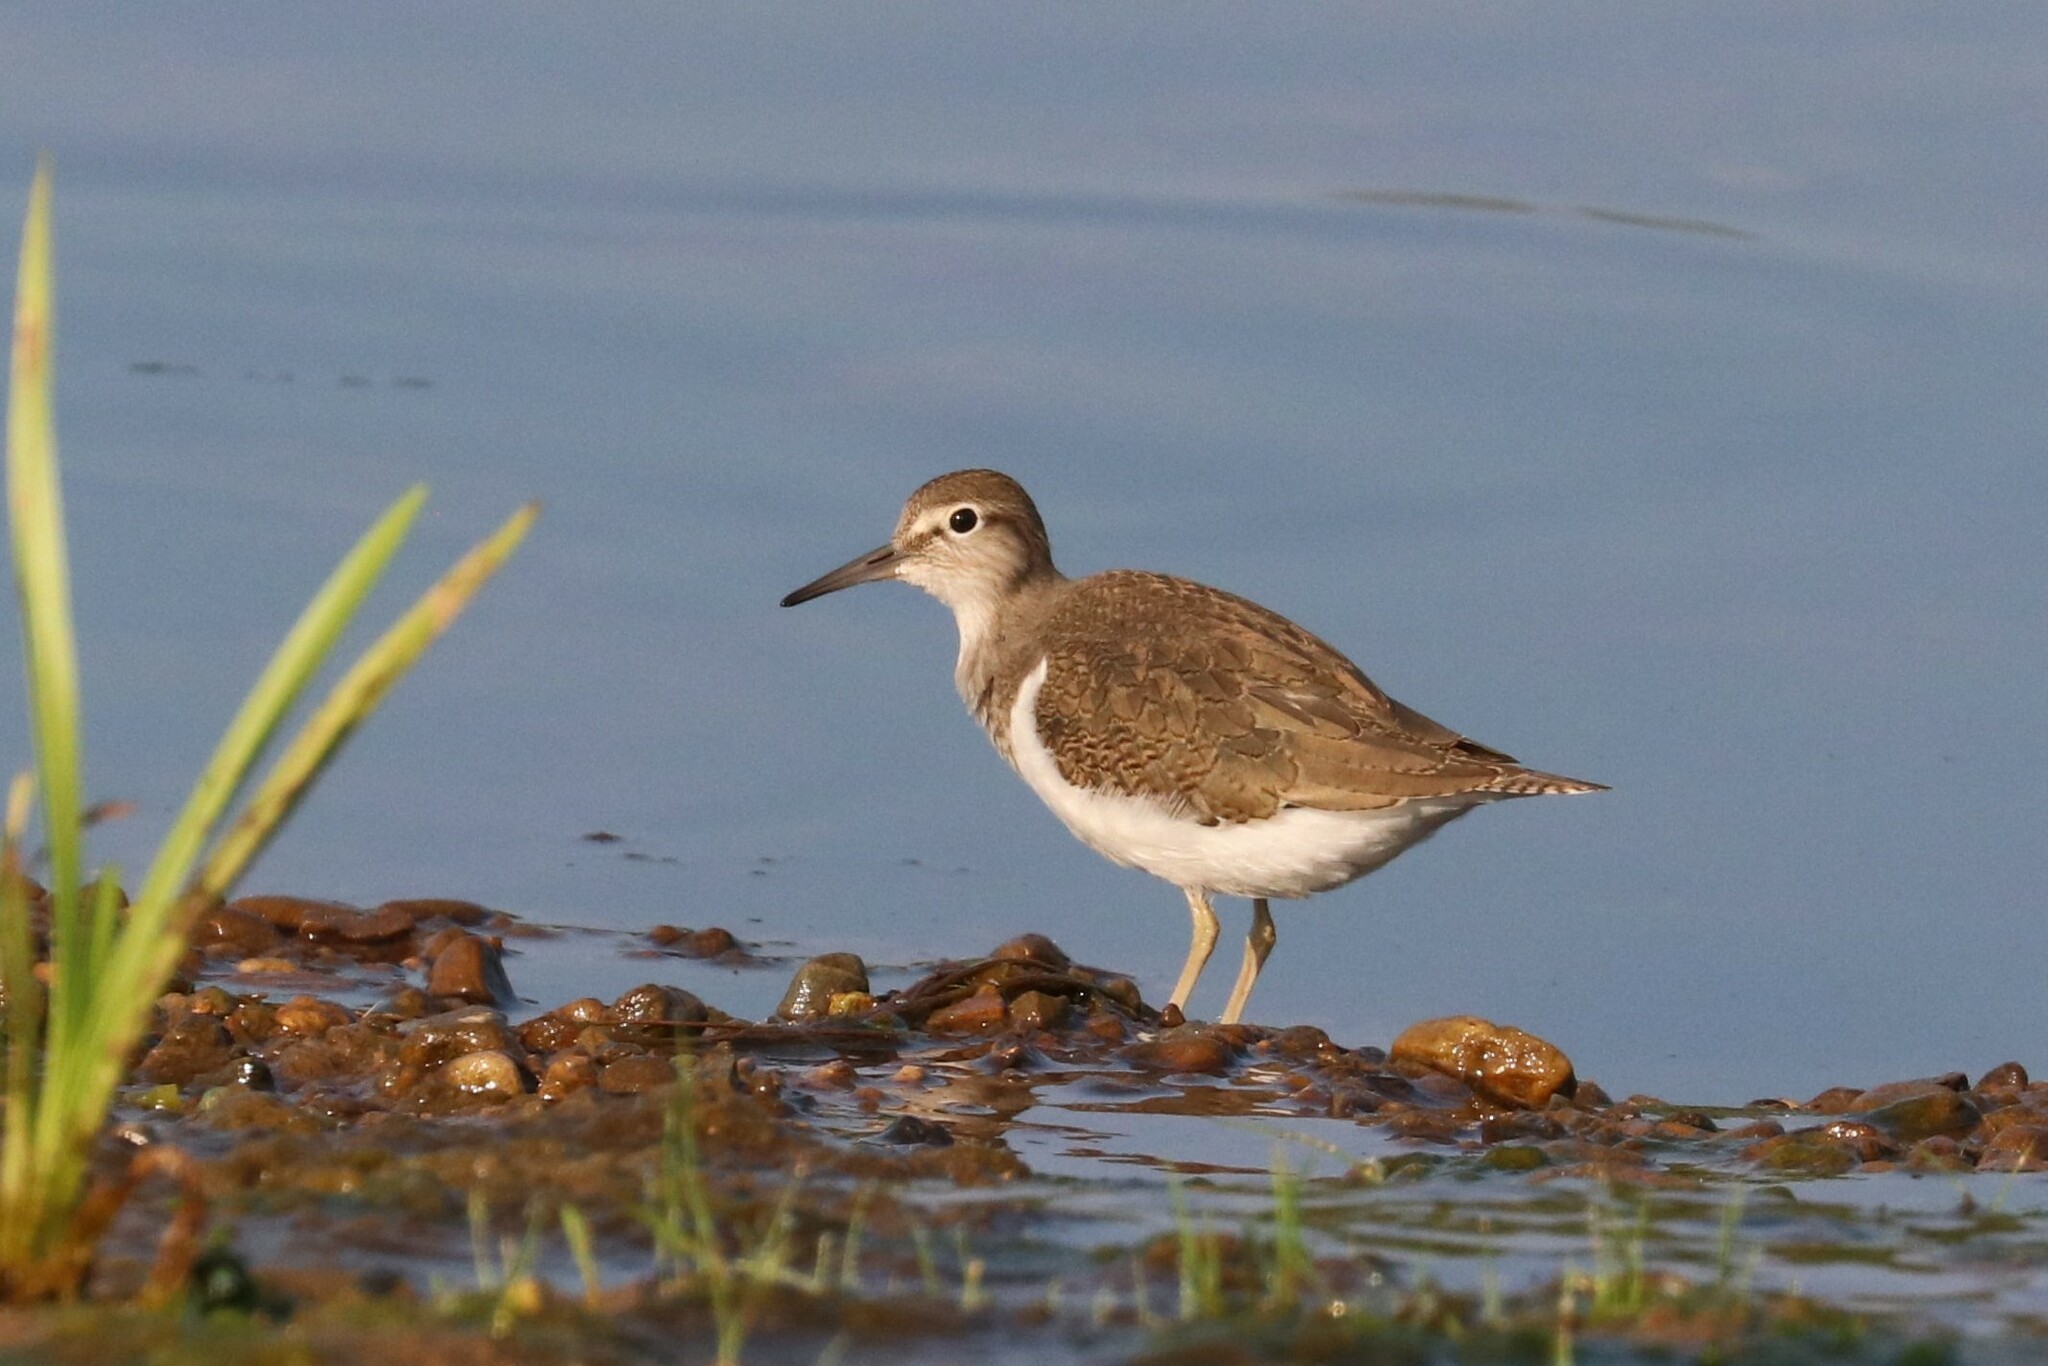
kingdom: Animalia
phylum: Chordata
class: Aves
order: Charadriiformes
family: Scolopacidae
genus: Actitis
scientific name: Actitis hypoleucos
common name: Common sandpiper
